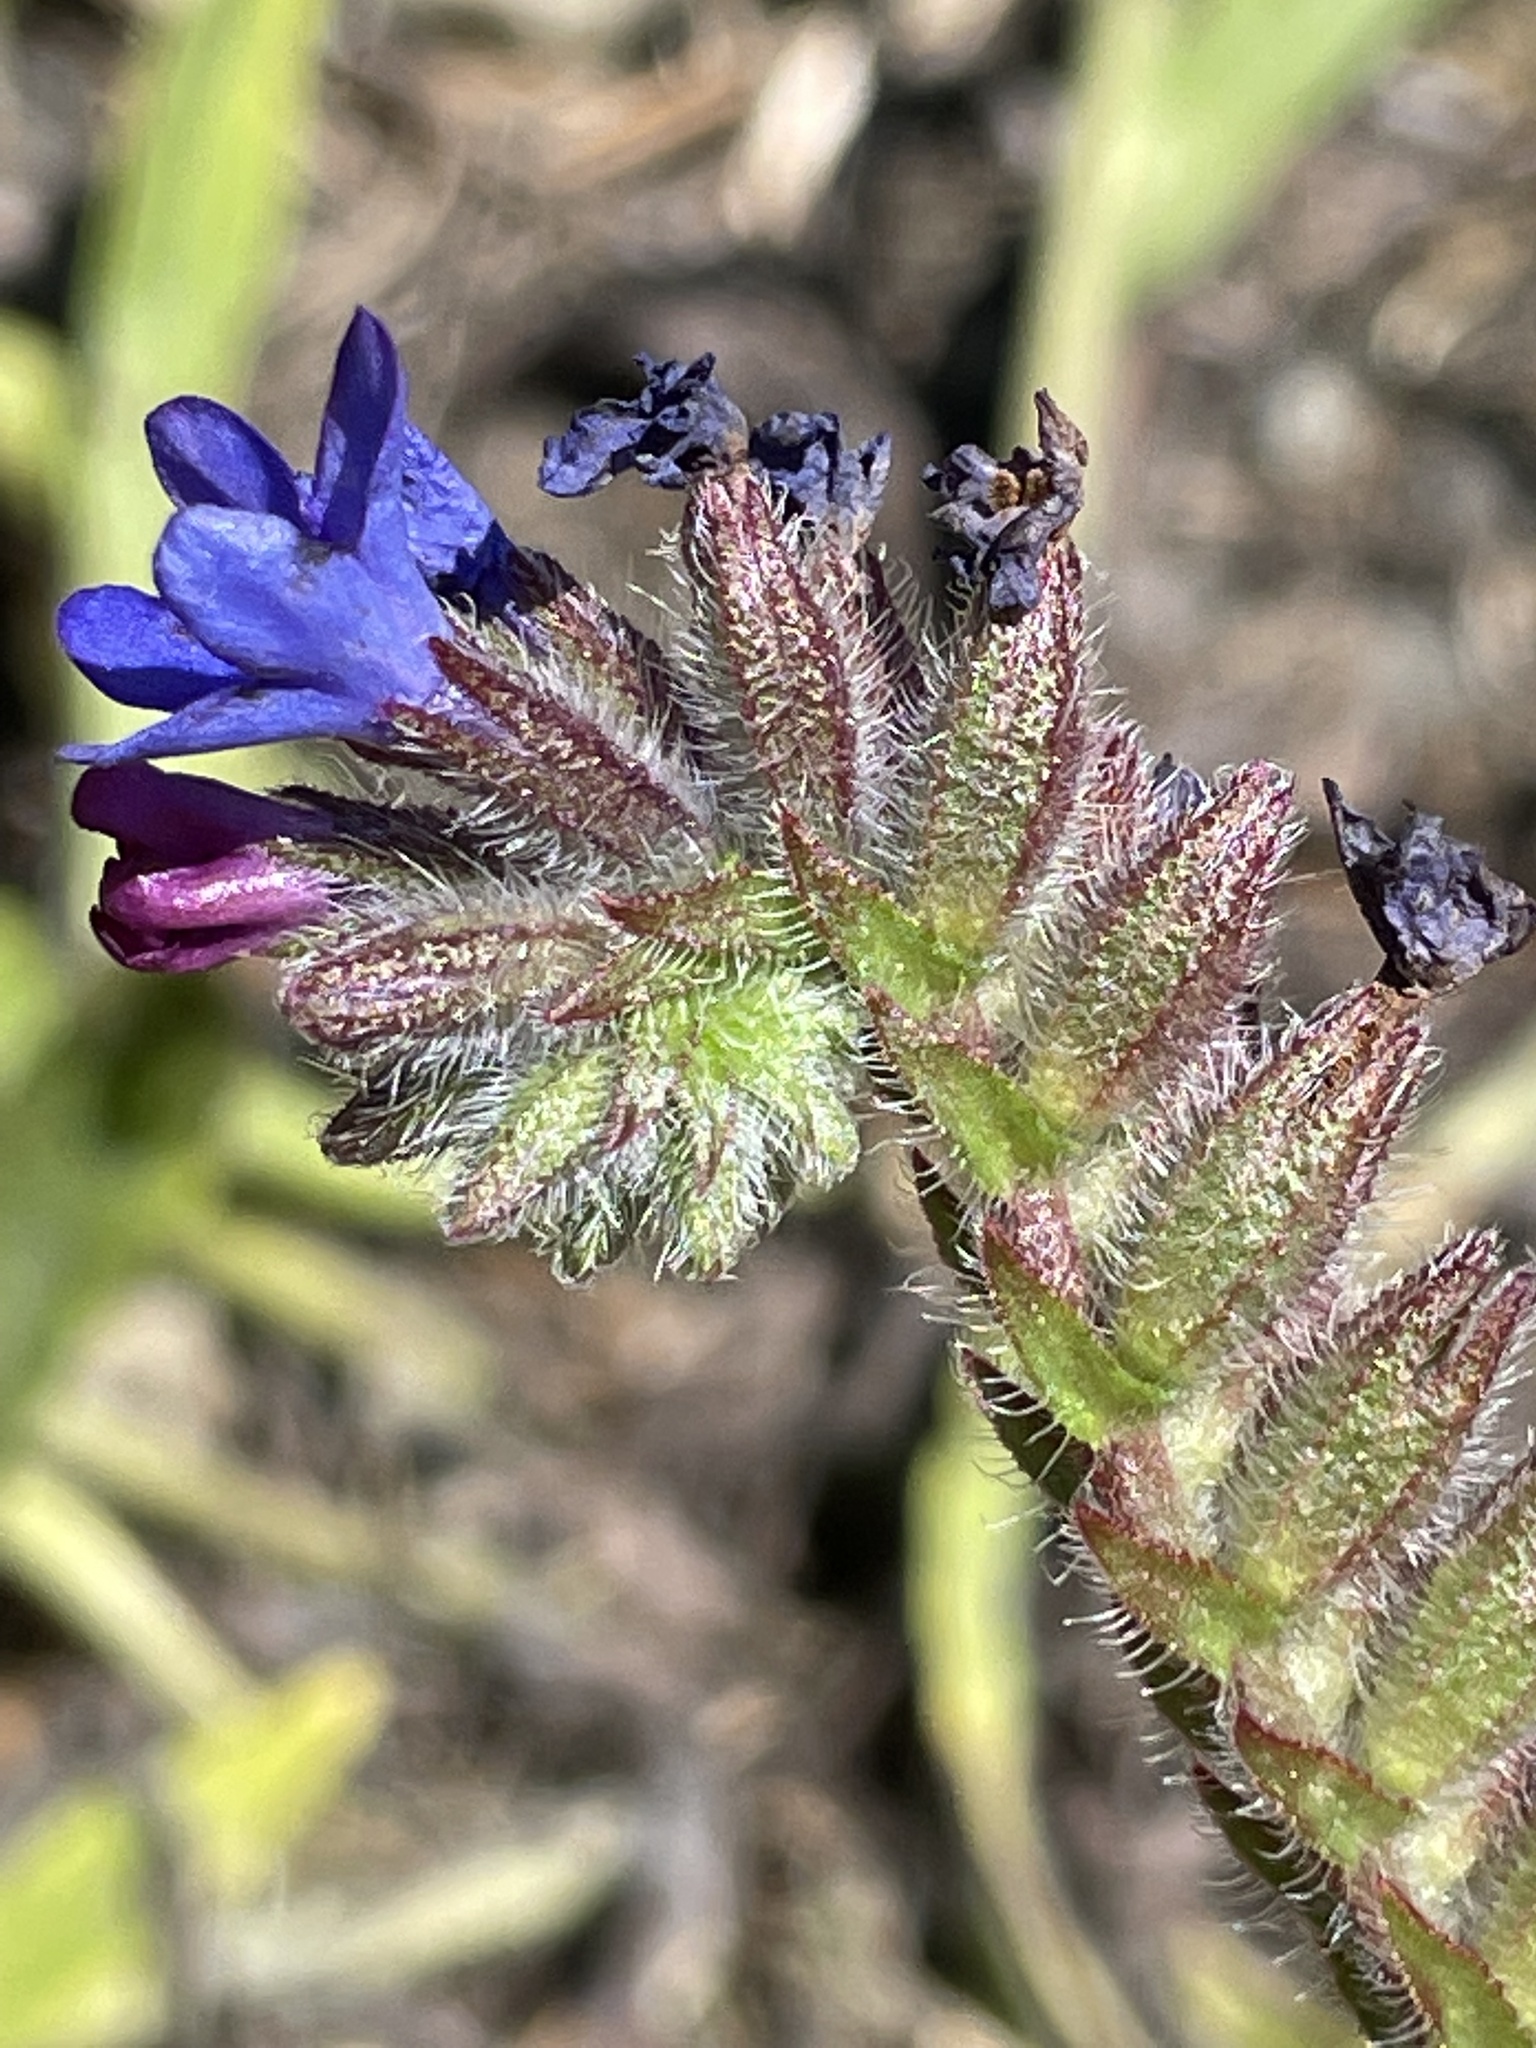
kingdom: Plantae
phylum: Tracheophyta
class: Magnoliopsida
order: Boraginales
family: Boraginaceae
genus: Anchusa
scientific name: Anchusa officinalis
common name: Alkanet
